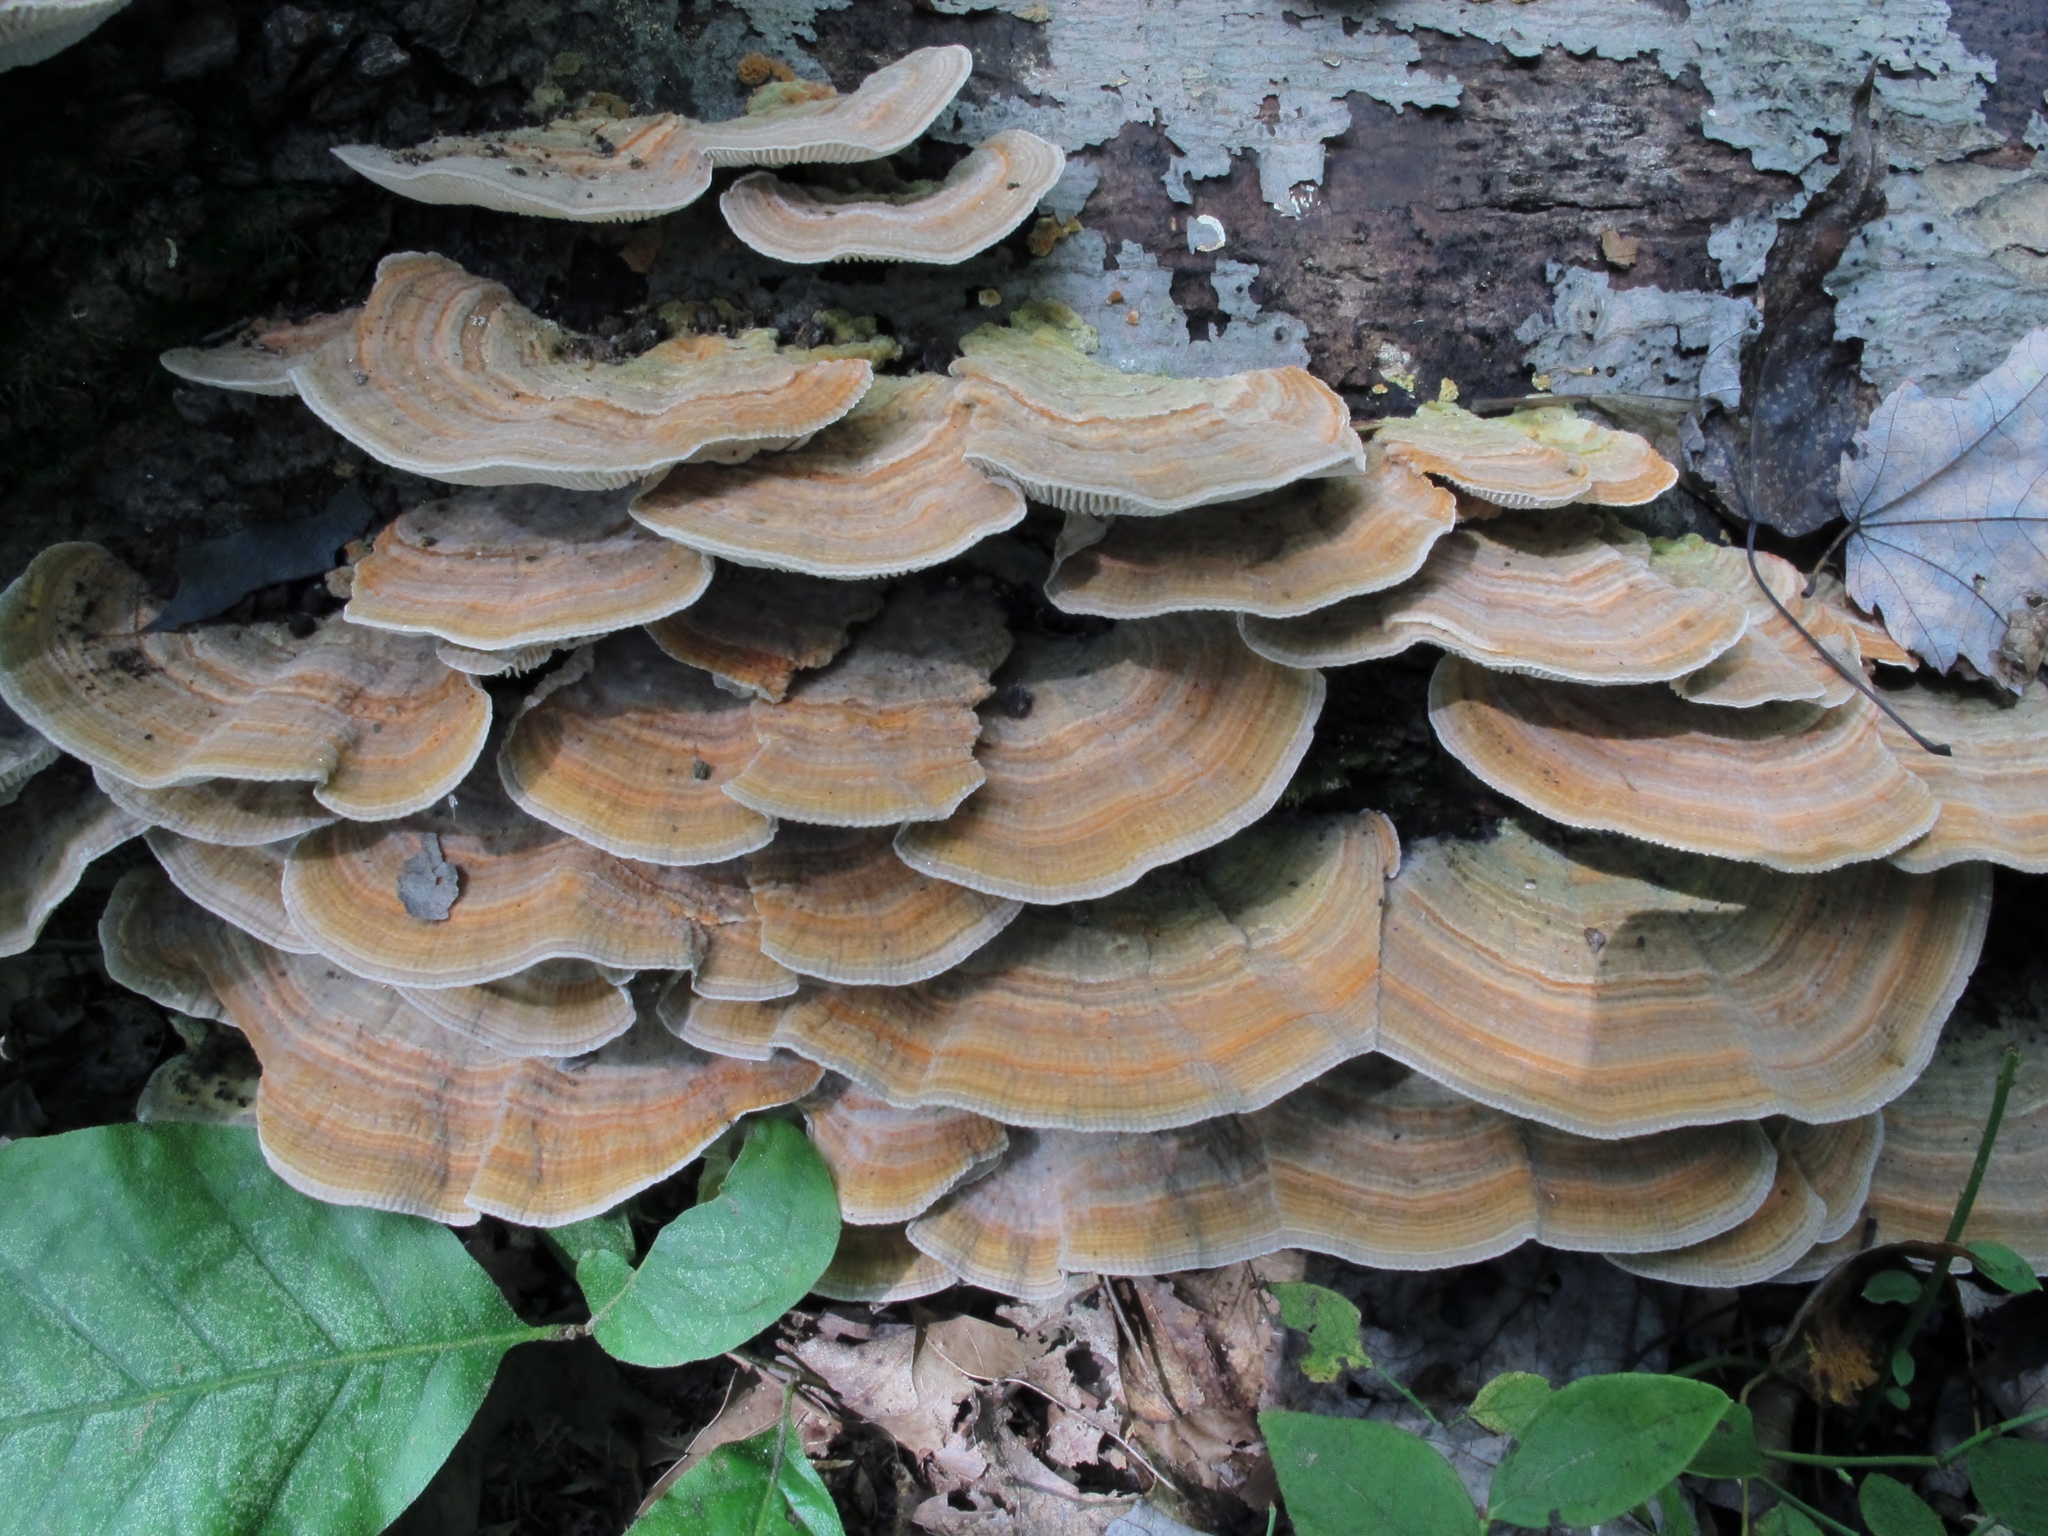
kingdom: Fungi
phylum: Basidiomycota
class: Agaricomycetes
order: Polyporales
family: Polyporaceae
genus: Lenzites
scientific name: Lenzites betulinus
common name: Birch mazegill
